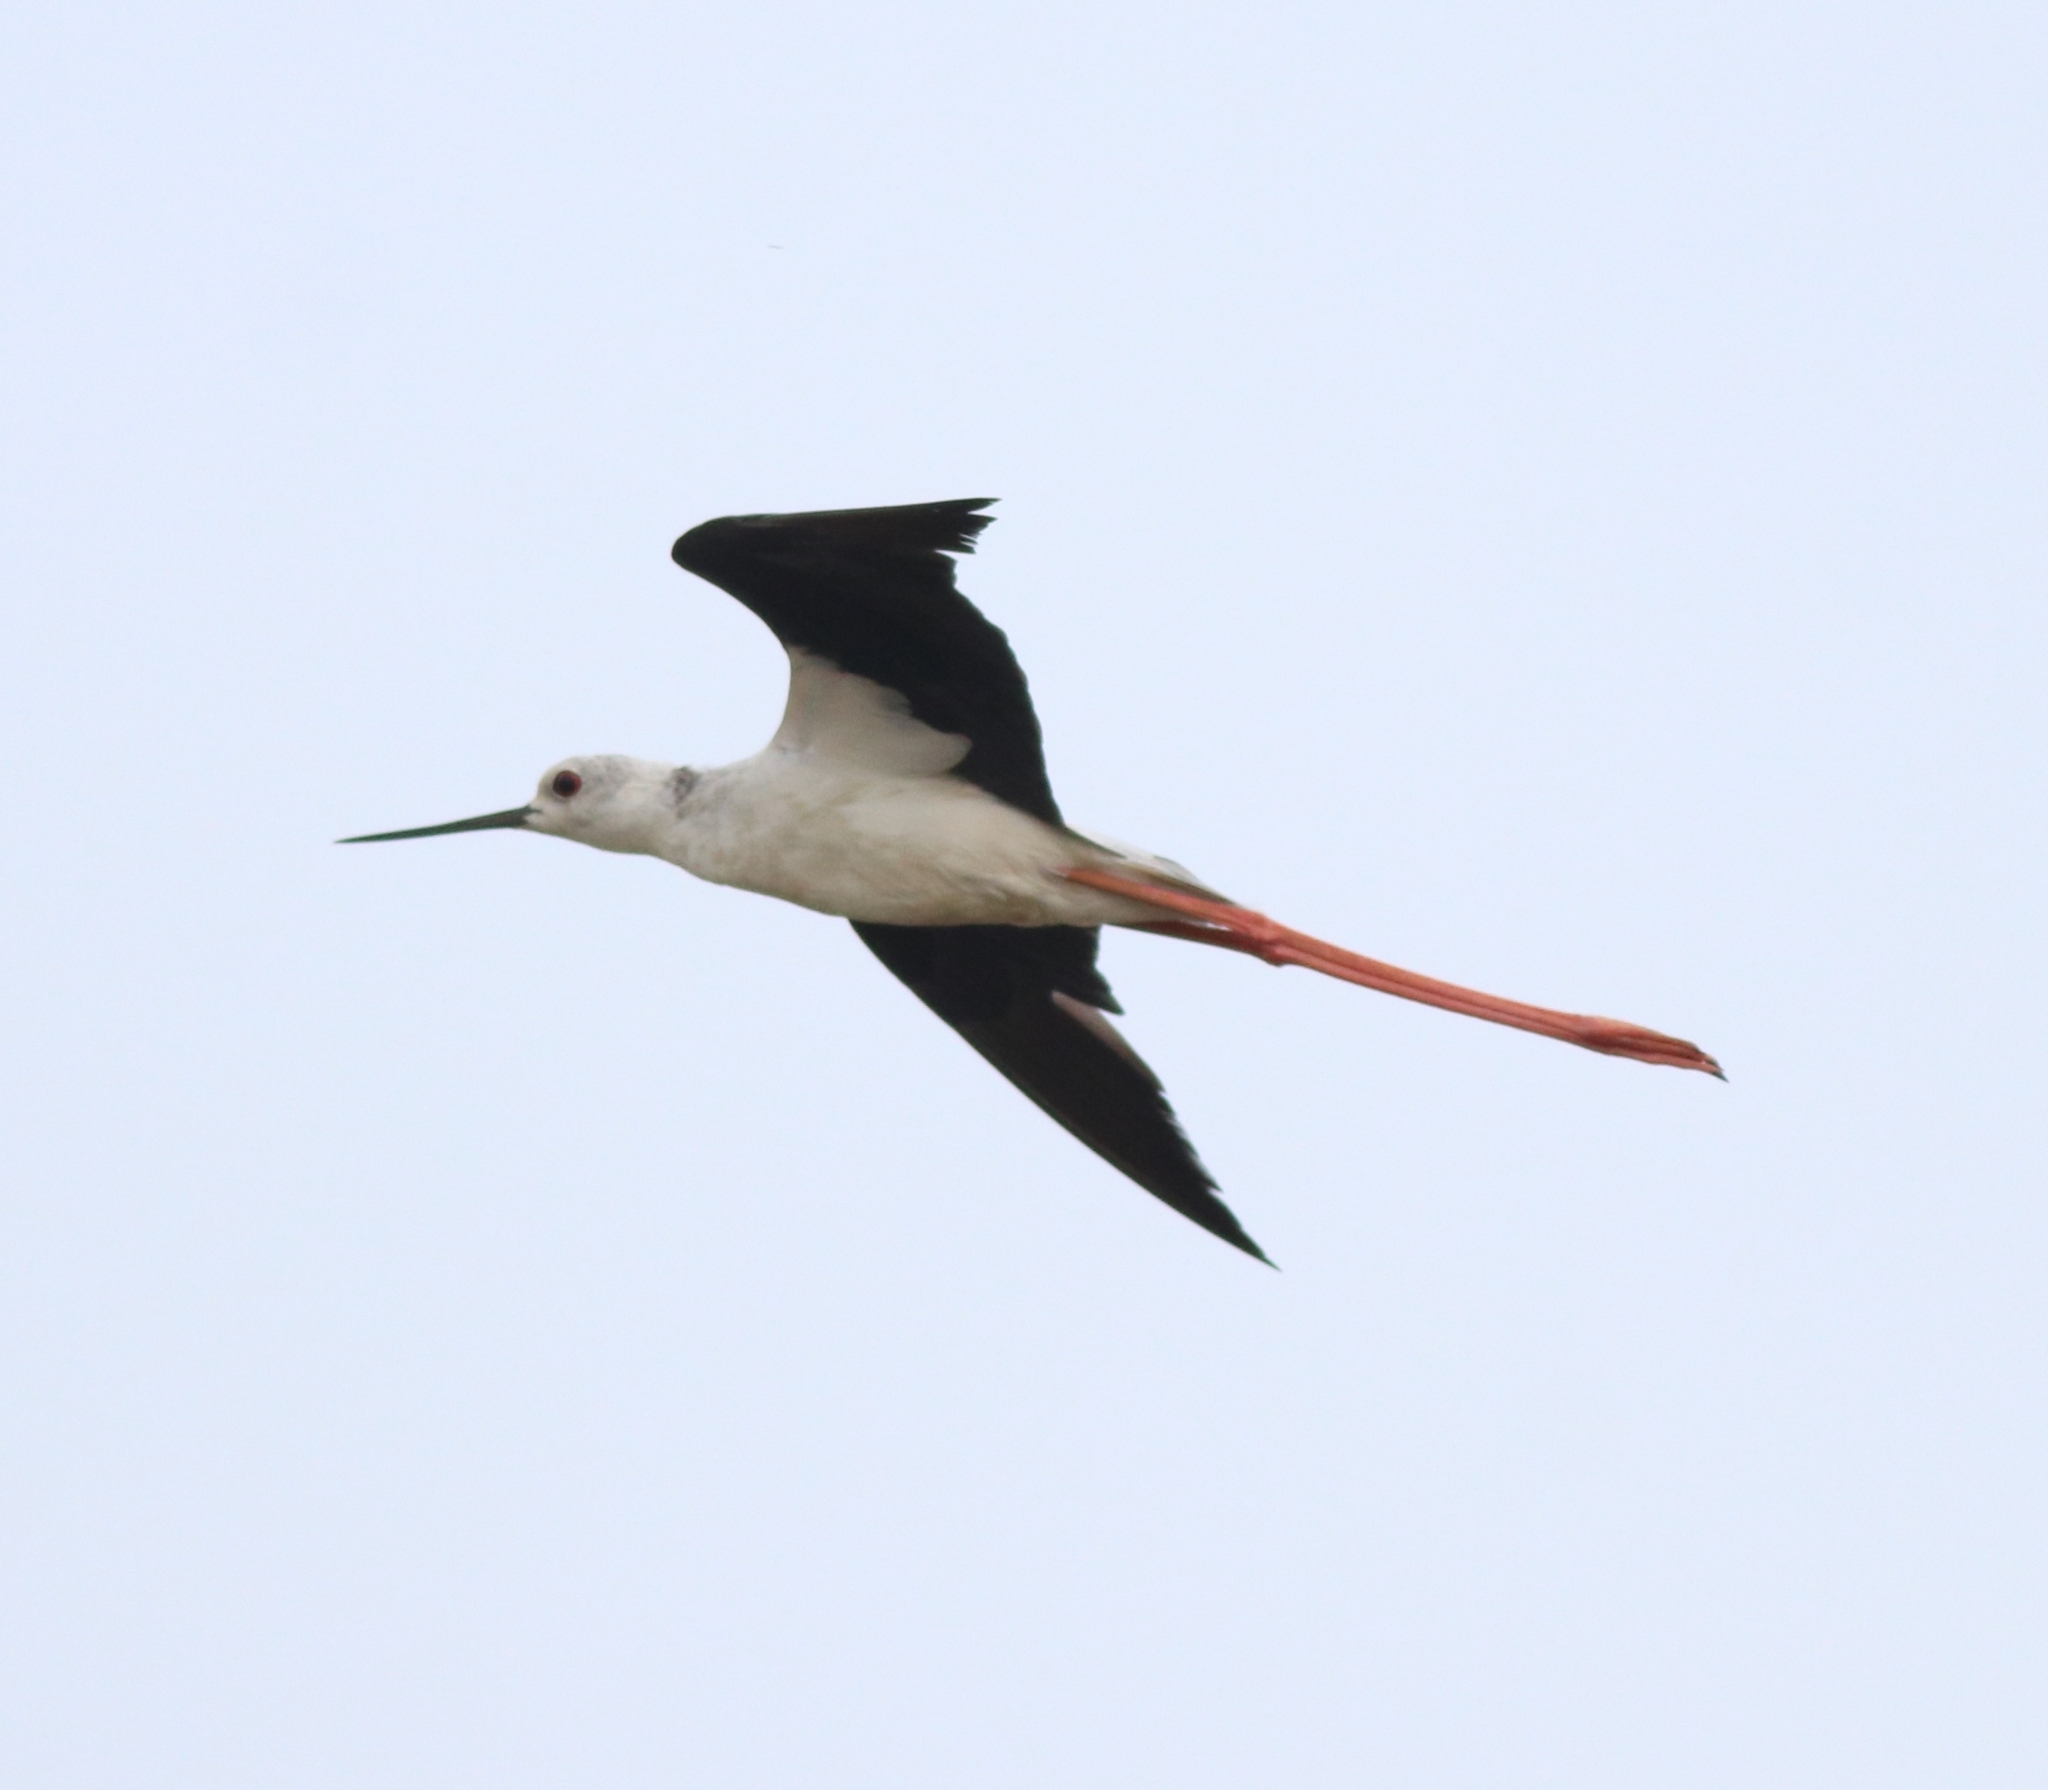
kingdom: Animalia
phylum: Chordata
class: Aves
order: Charadriiformes
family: Recurvirostridae
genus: Himantopus
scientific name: Himantopus himantopus
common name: Black-winged stilt
